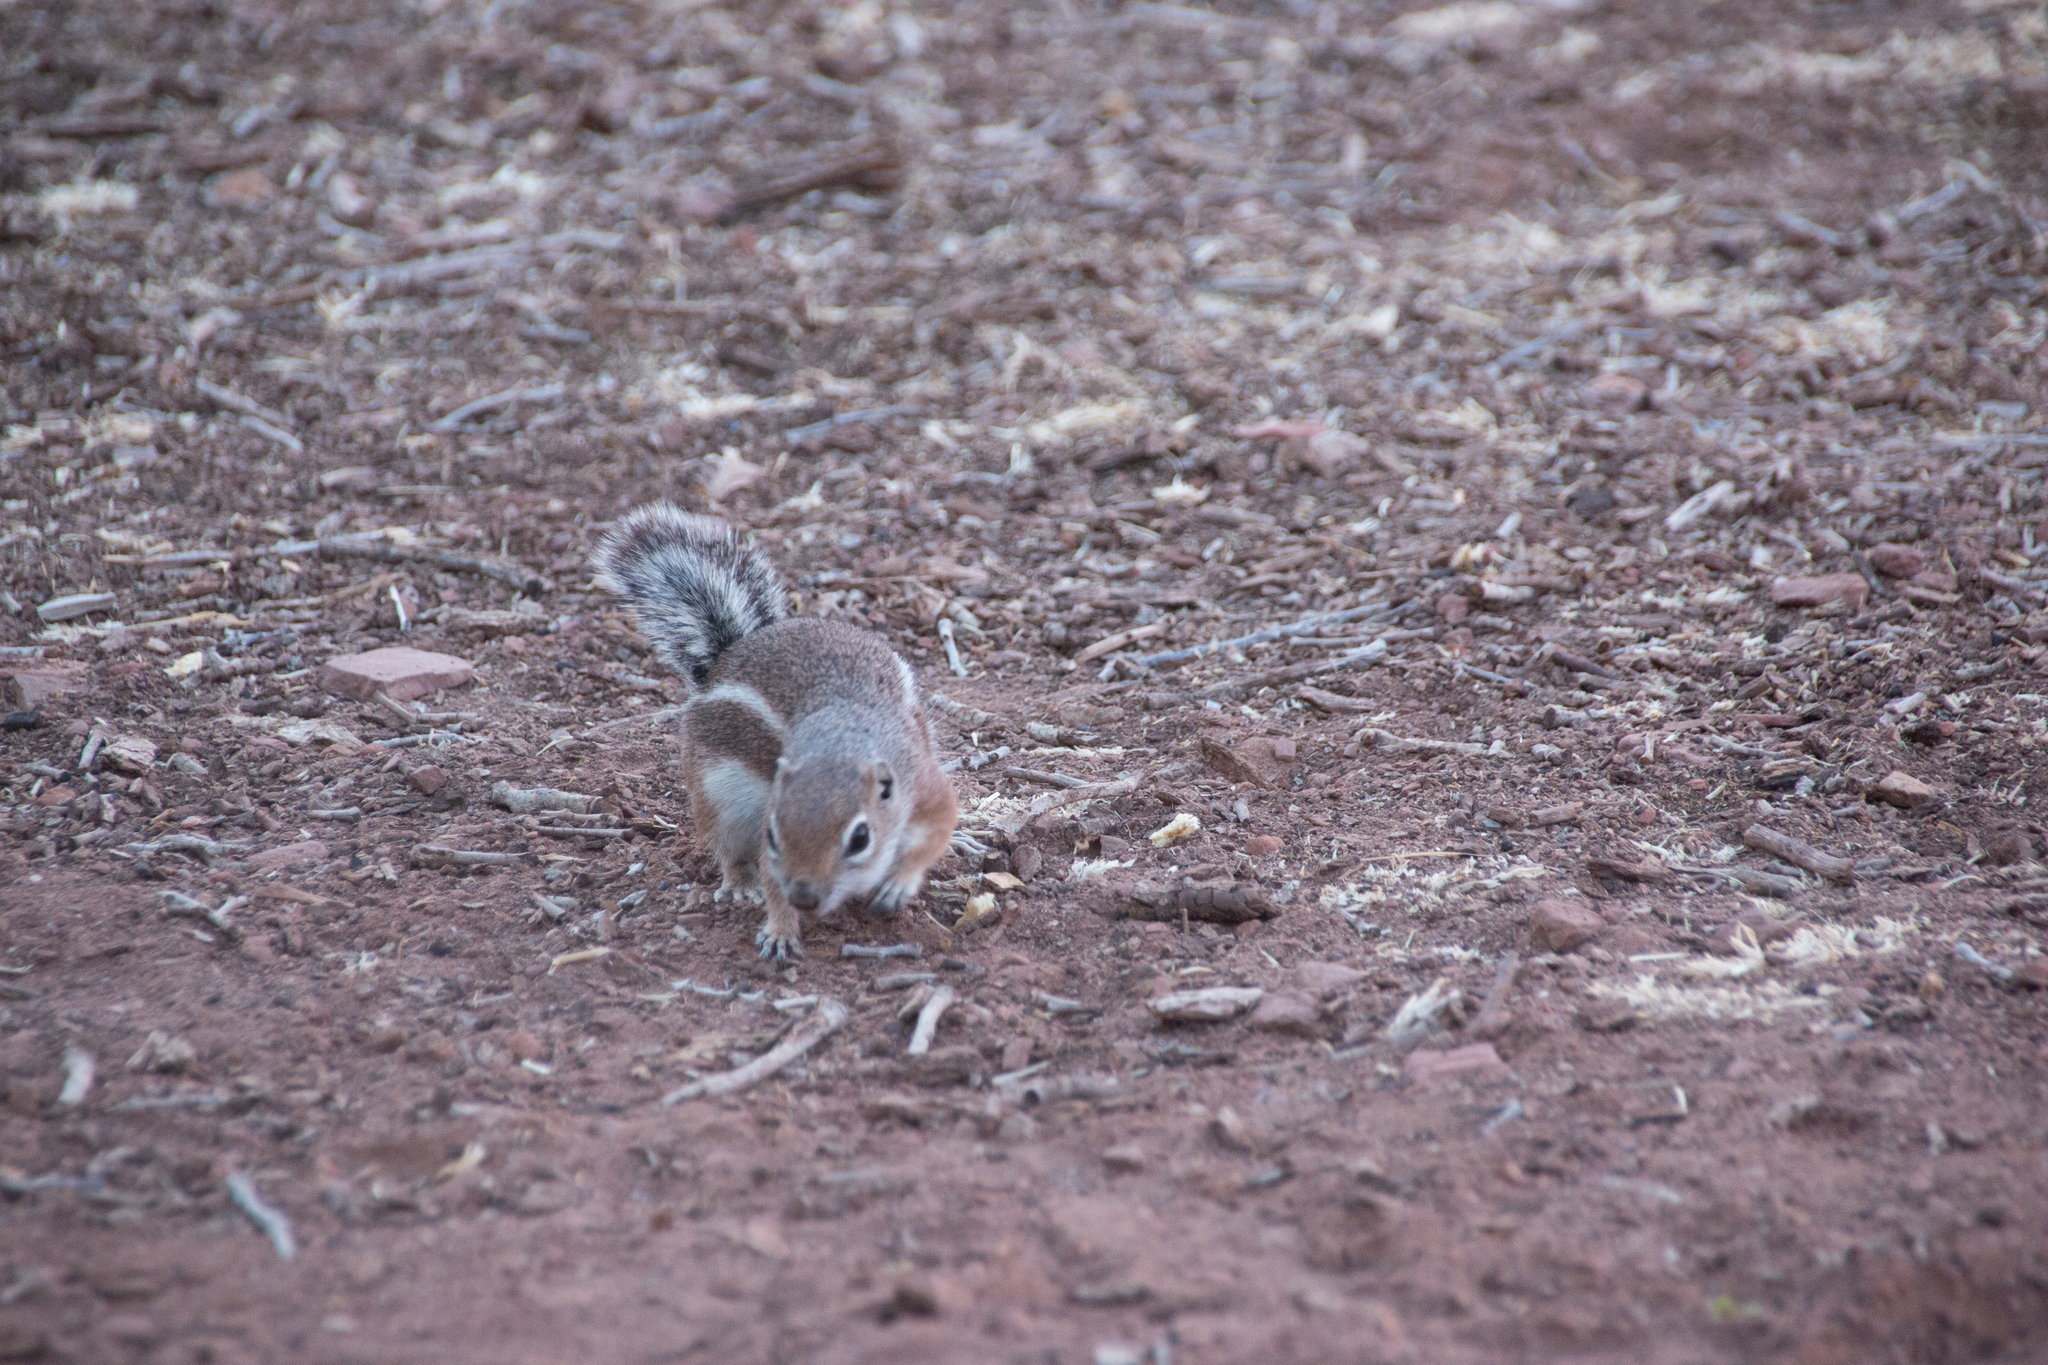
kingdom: Animalia
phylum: Chordata
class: Mammalia
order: Rodentia
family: Sciuridae
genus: Ammospermophilus
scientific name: Ammospermophilus leucurus
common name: White-tailed antelope squirrel
